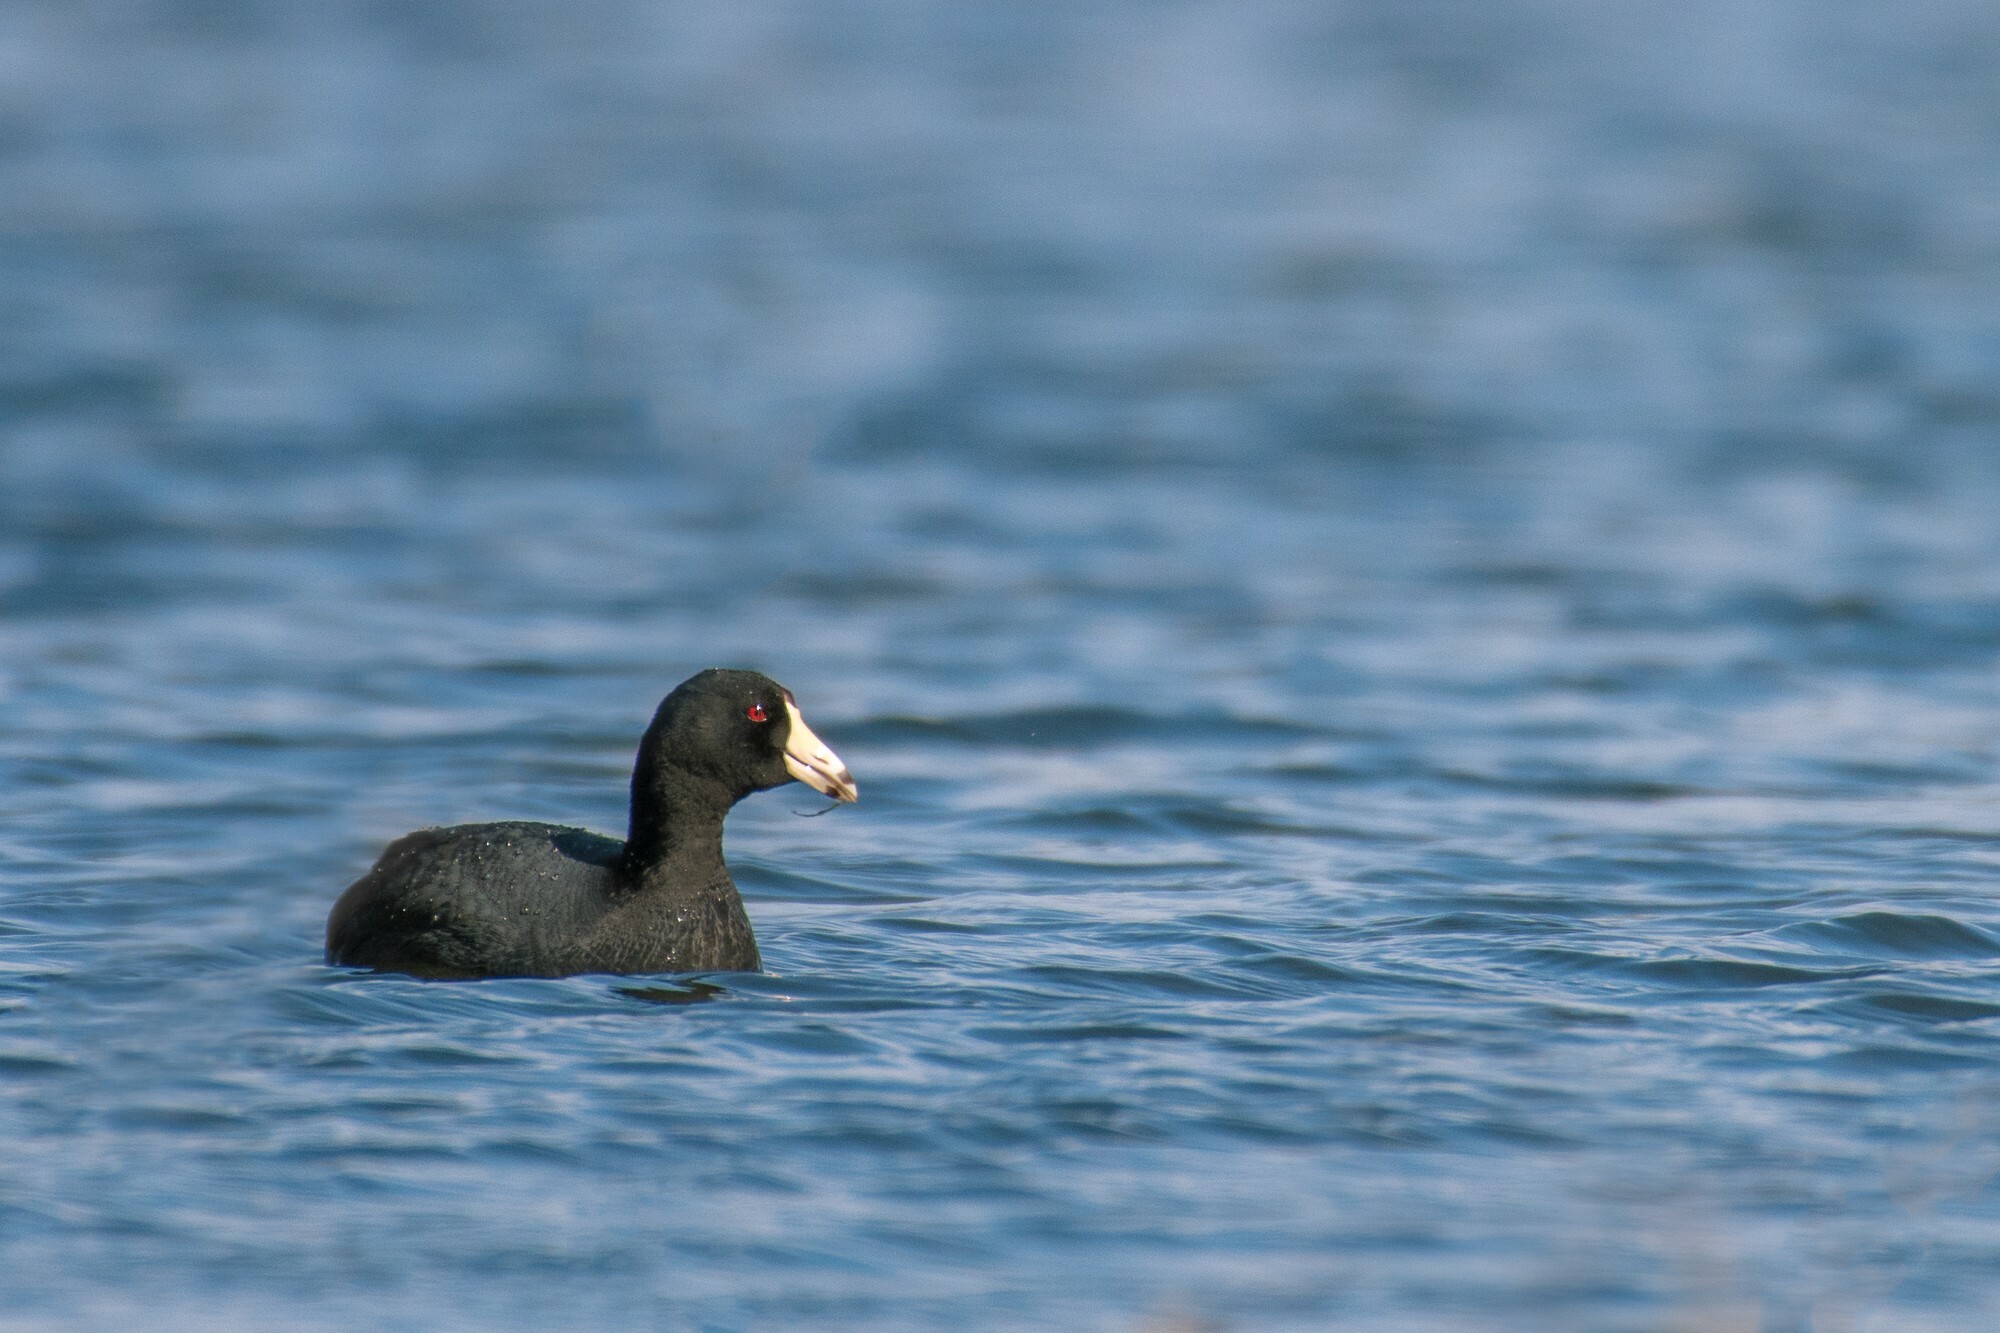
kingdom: Animalia
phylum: Chordata
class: Aves
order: Gruiformes
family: Rallidae
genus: Fulica
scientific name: Fulica americana
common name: American coot
